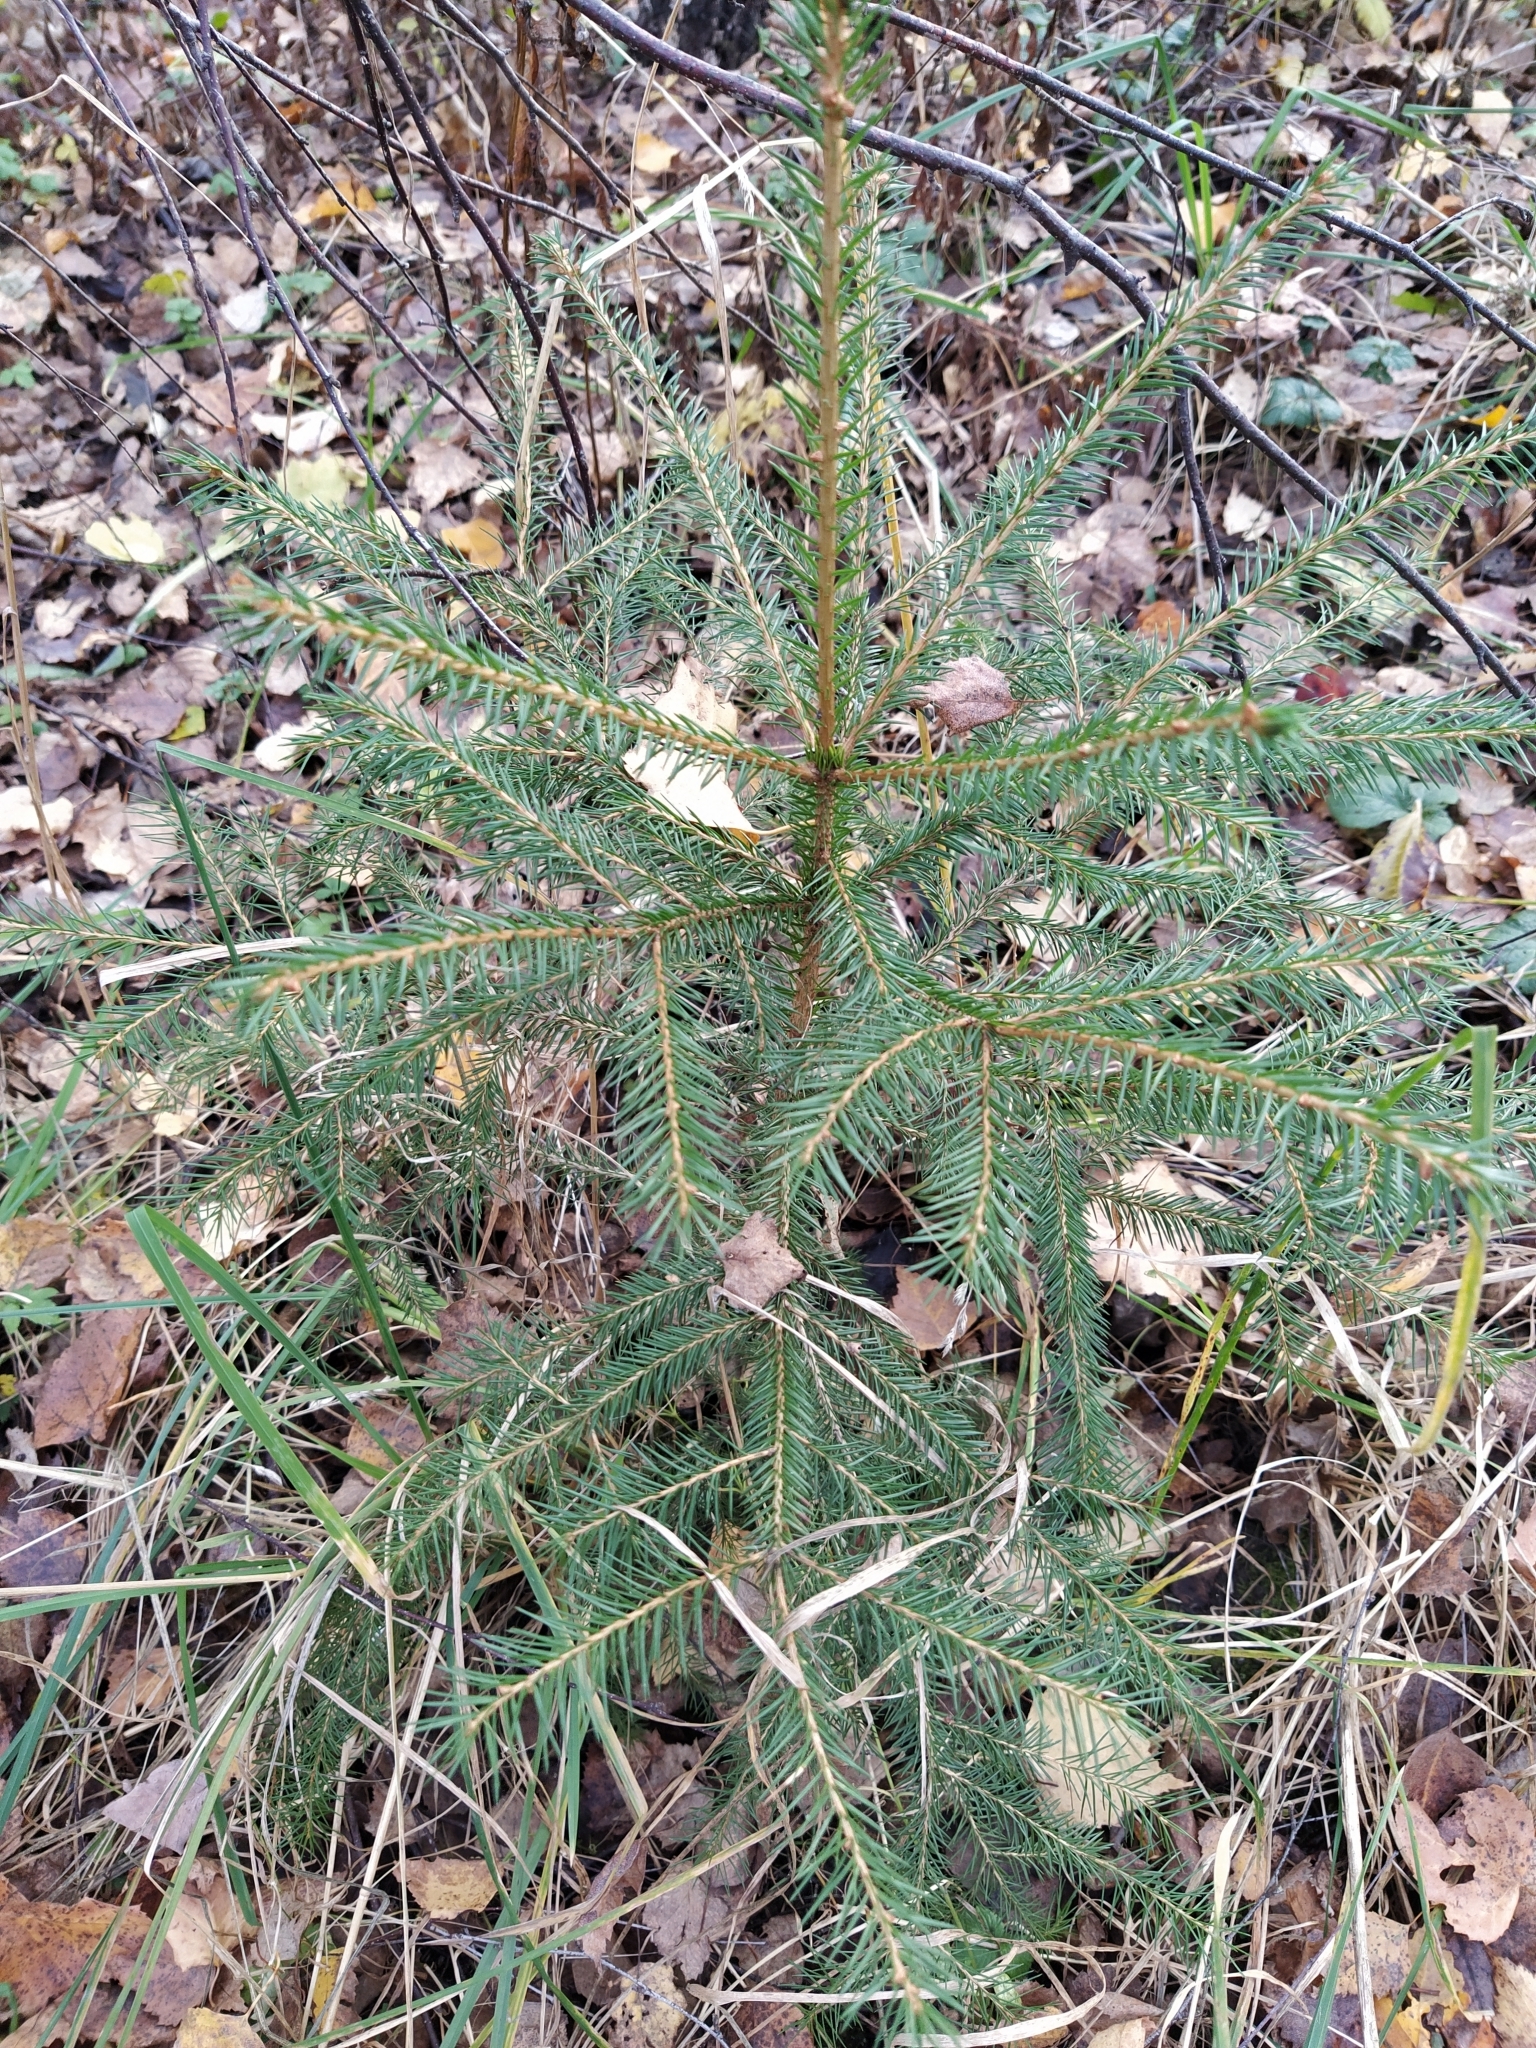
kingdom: Plantae
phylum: Tracheophyta
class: Pinopsida
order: Pinales
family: Pinaceae
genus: Picea
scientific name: Picea abies
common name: Norway spruce
